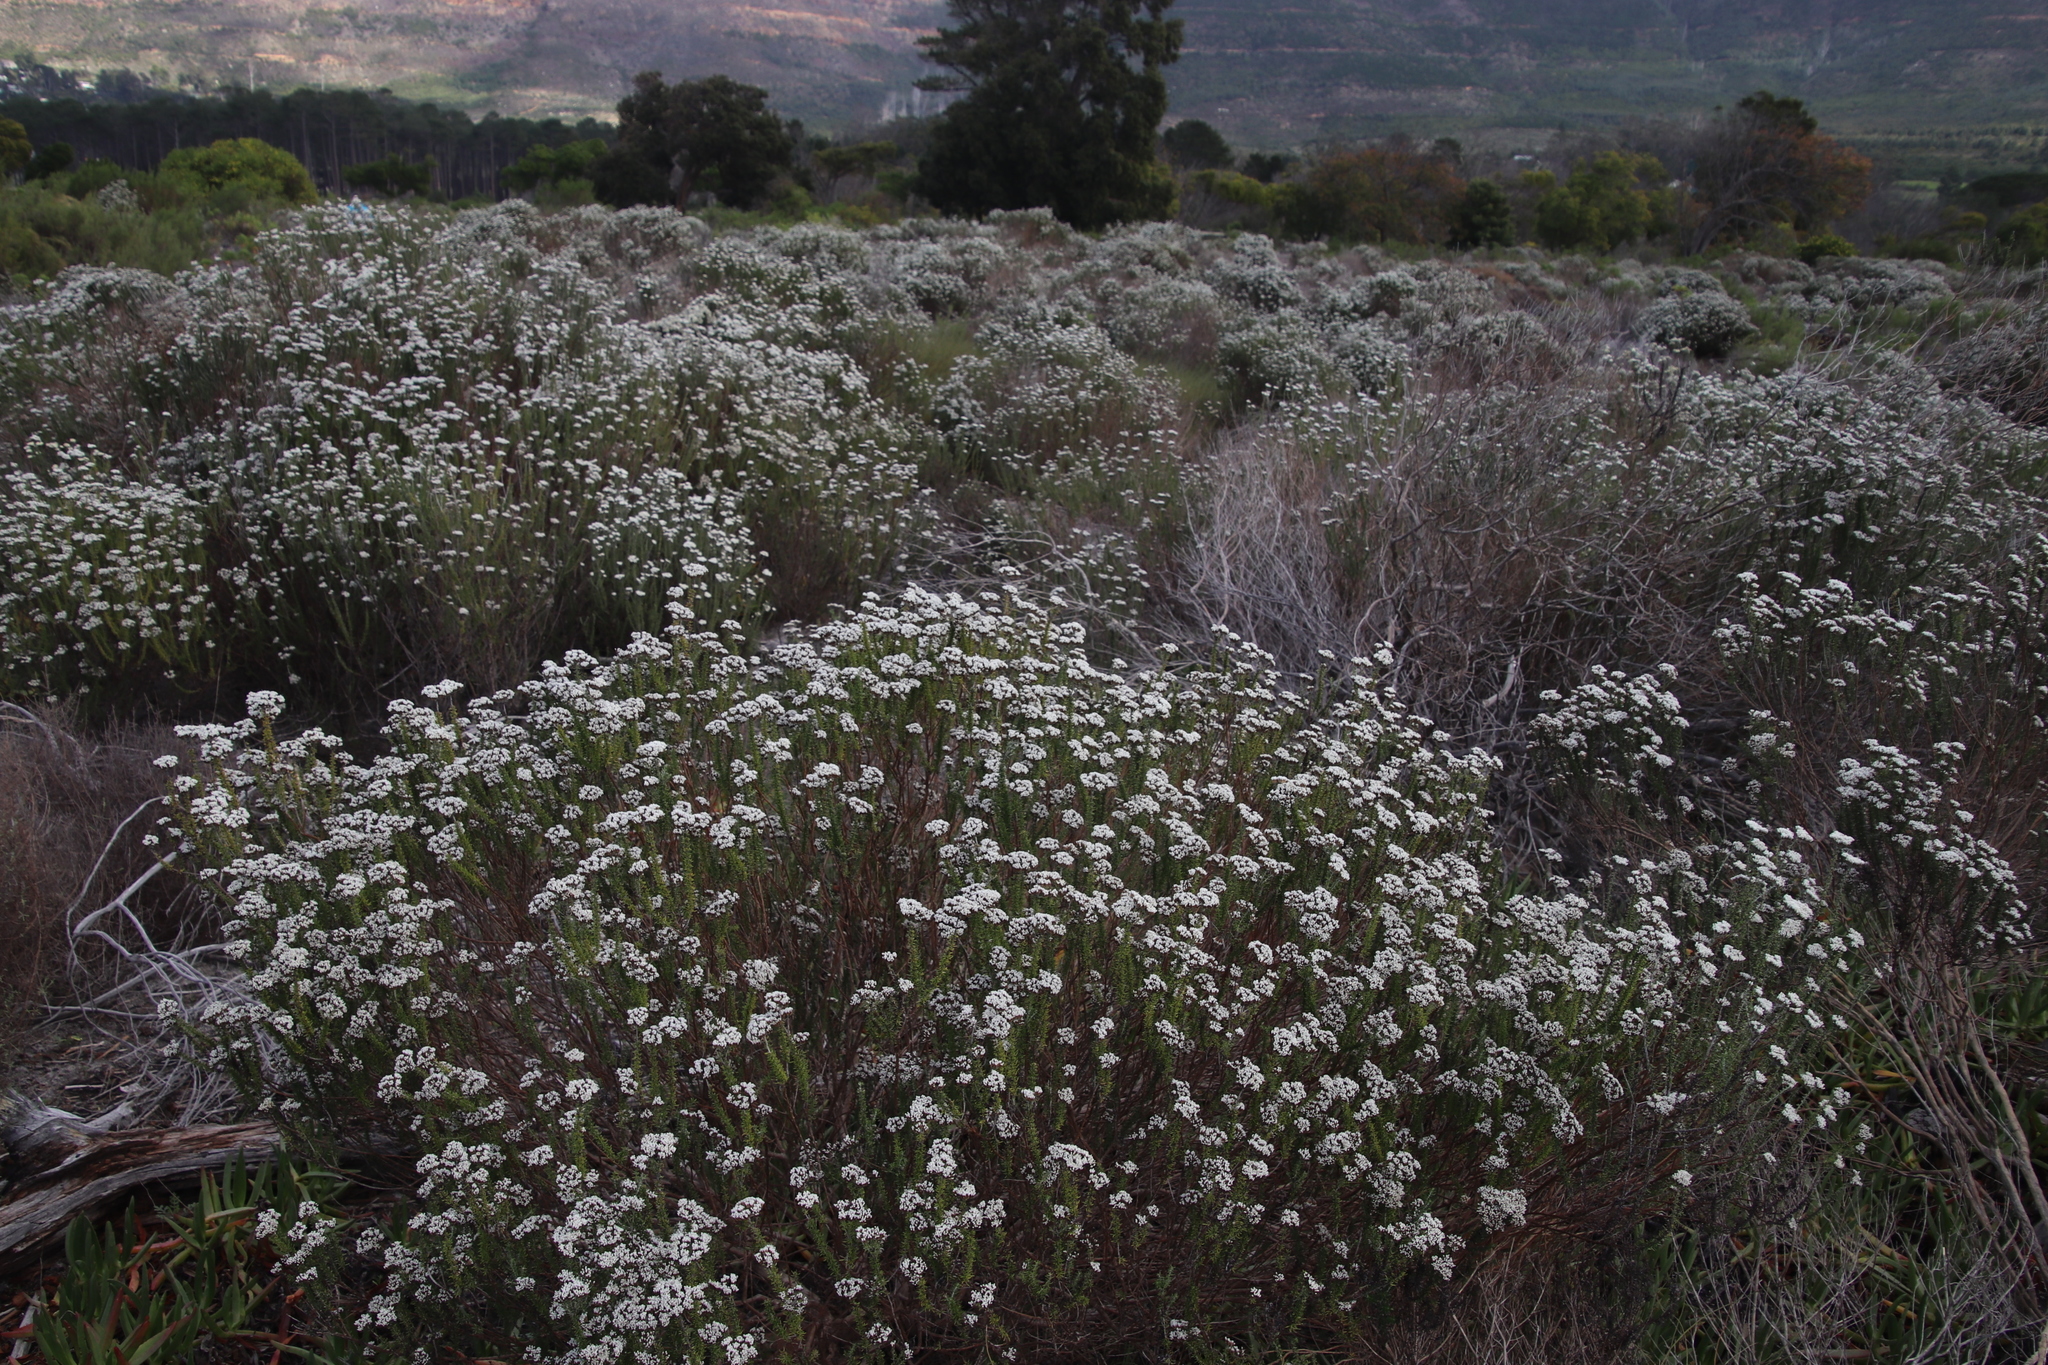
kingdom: Plantae
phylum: Tracheophyta
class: Magnoliopsida
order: Asterales
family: Asteraceae
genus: Metalasia
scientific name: Metalasia densa
